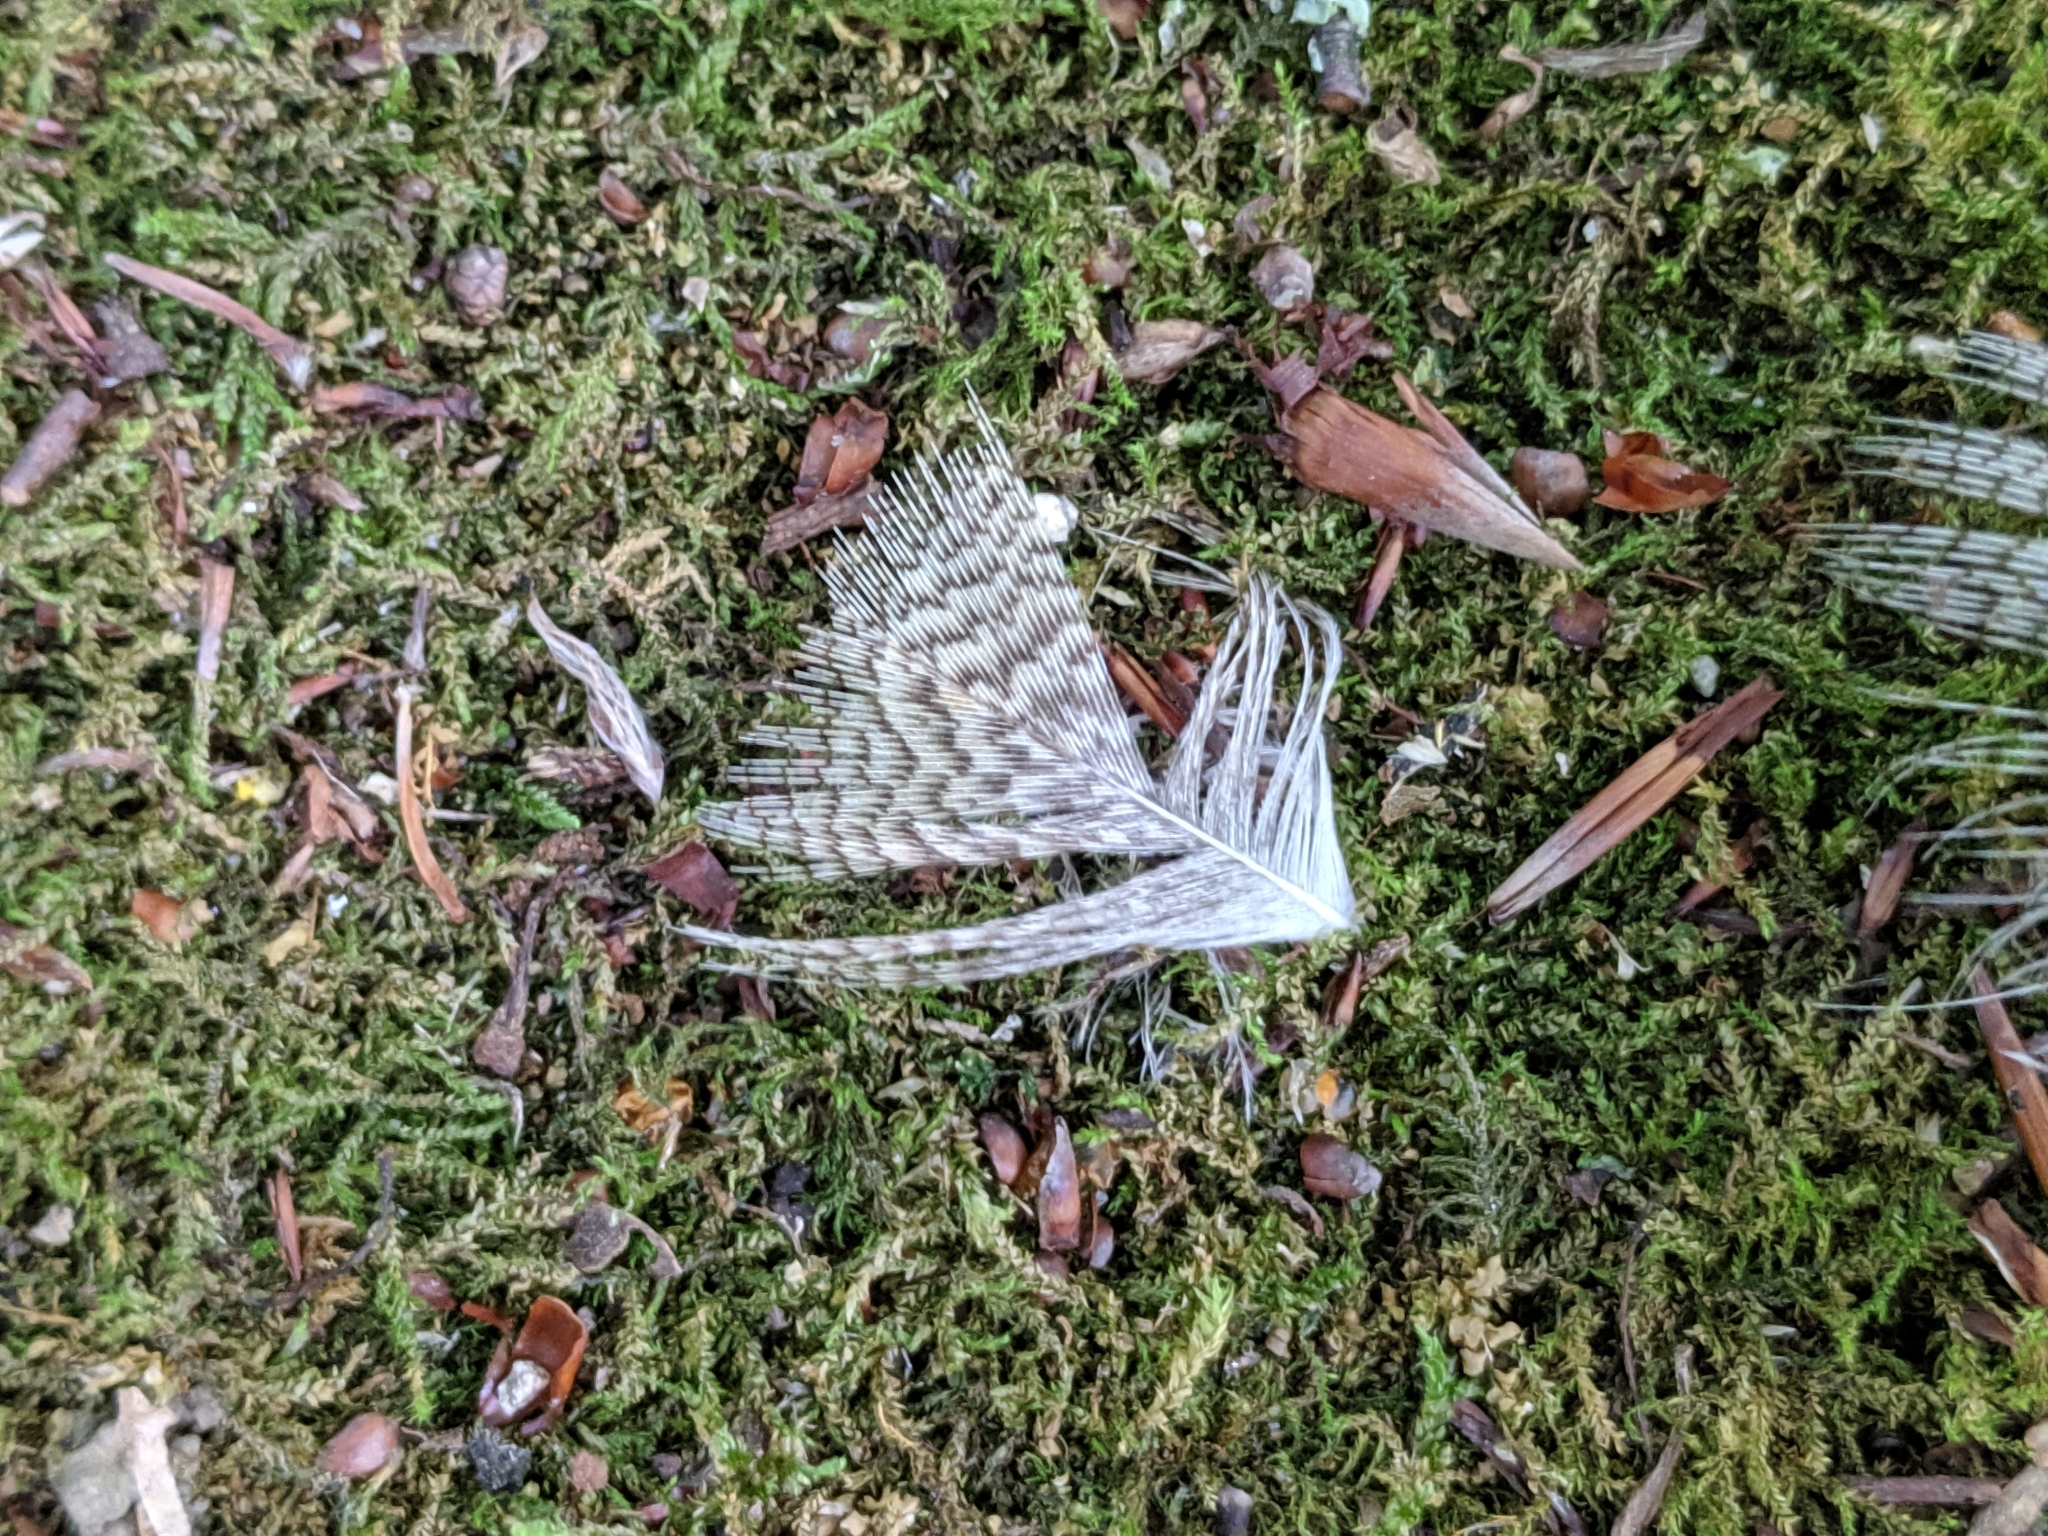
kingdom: Animalia
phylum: Chordata
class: Aves
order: Anseriformes
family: Anatidae
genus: Anas
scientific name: Anas platyrhynchos
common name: Mallard
